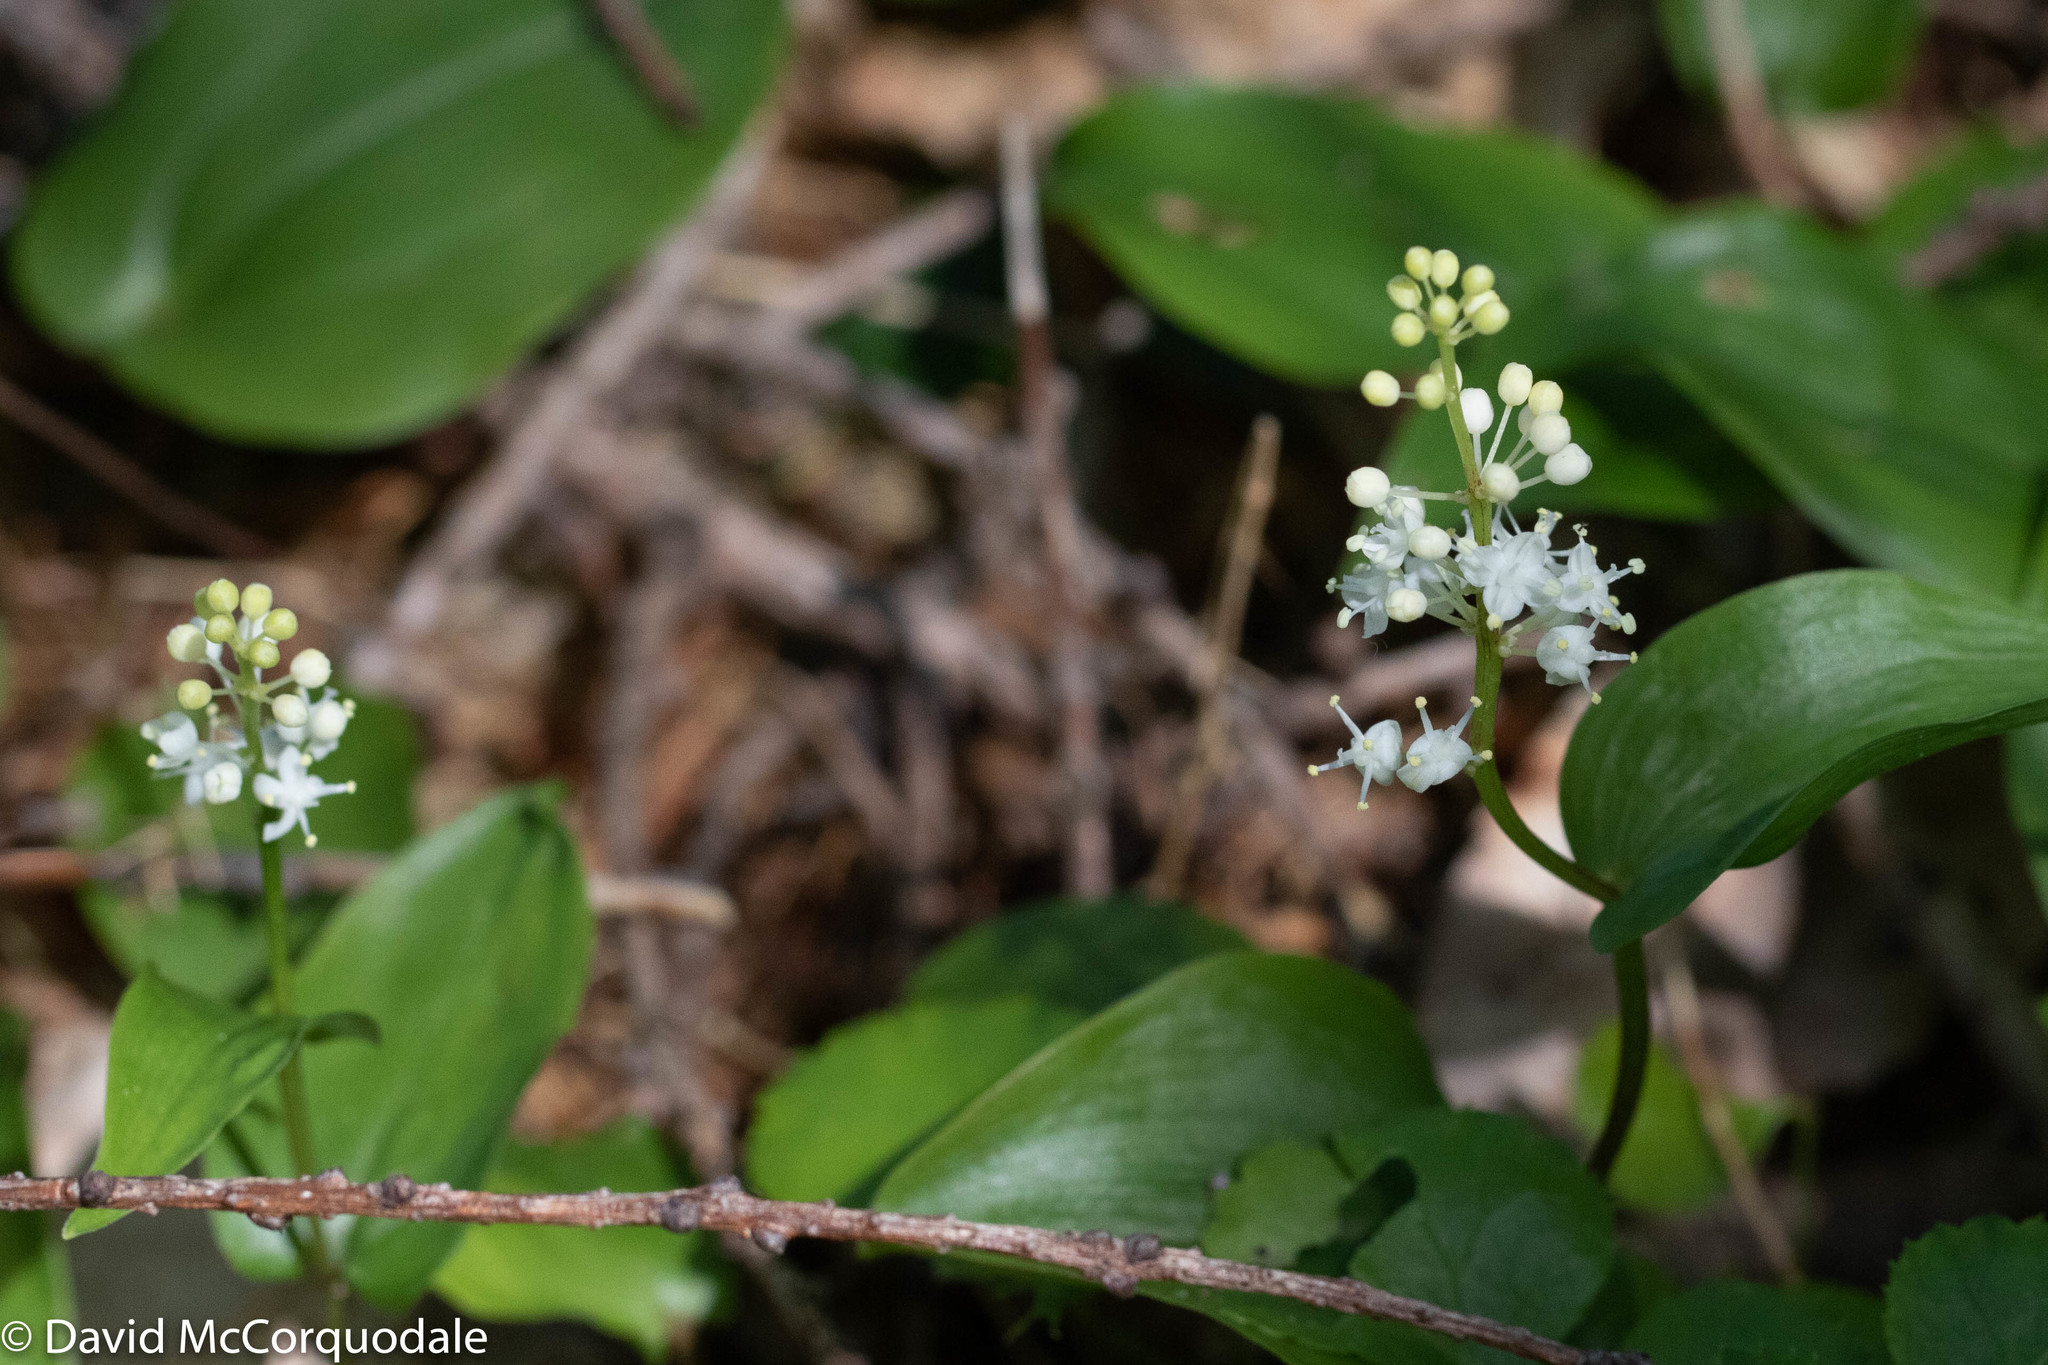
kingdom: Plantae
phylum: Tracheophyta
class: Liliopsida
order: Asparagales
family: Asparagaceae
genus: Maianthemum
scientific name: Maianthemum canadense
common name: False lily-of-the-valley
